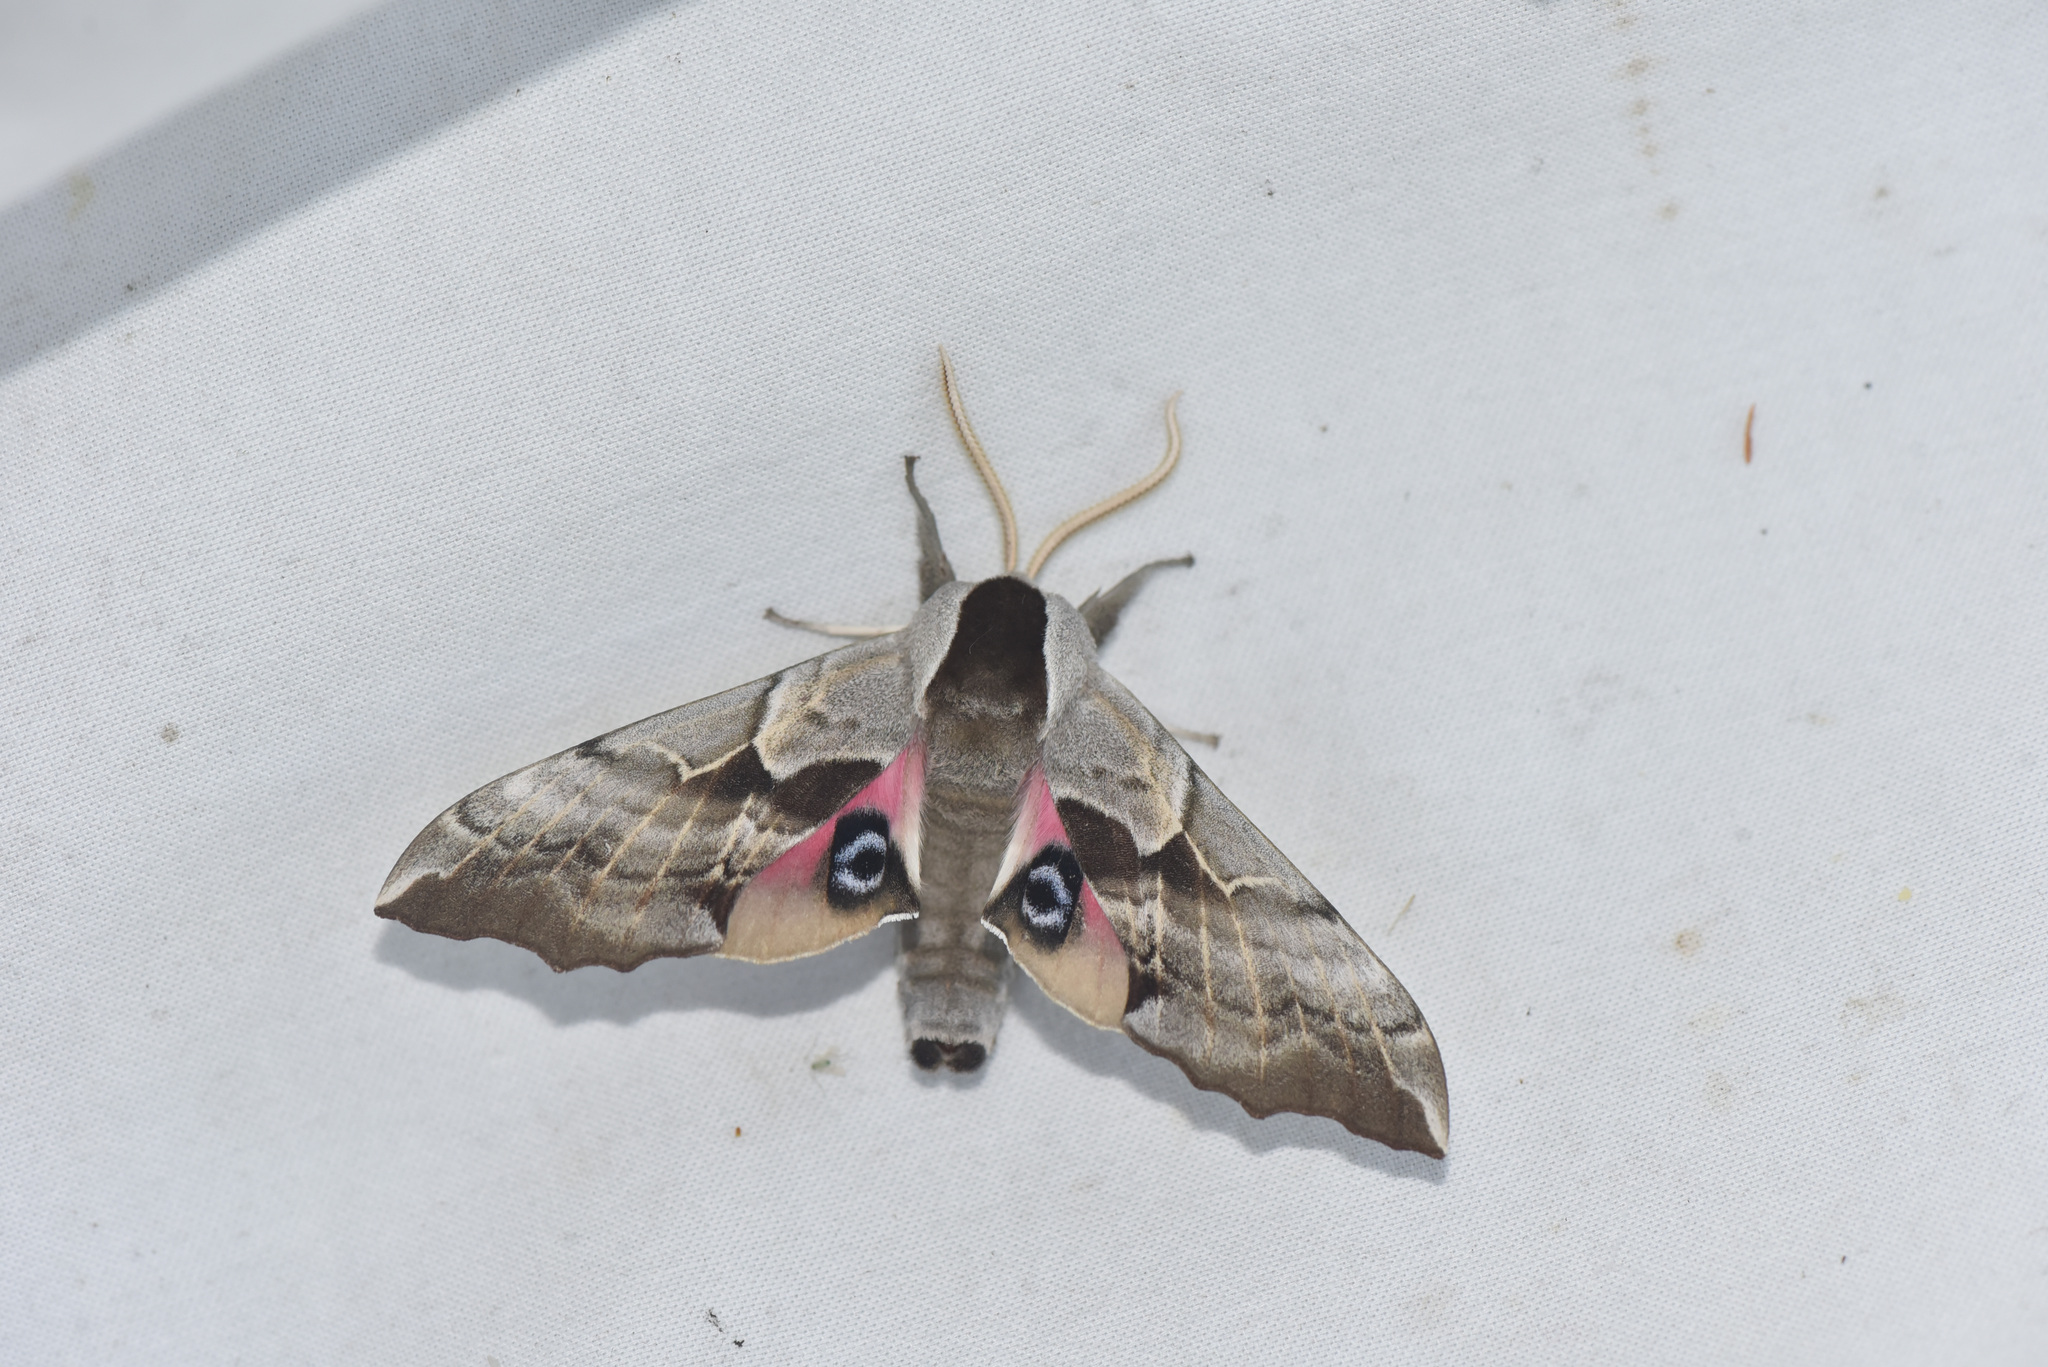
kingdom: Animalia
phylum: Arthropoda
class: Insecta
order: Lepidoptera
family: Sphingidae
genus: Smerinthus
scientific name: Smerinthus cerisyi
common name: Cerisy's sphinx moth
